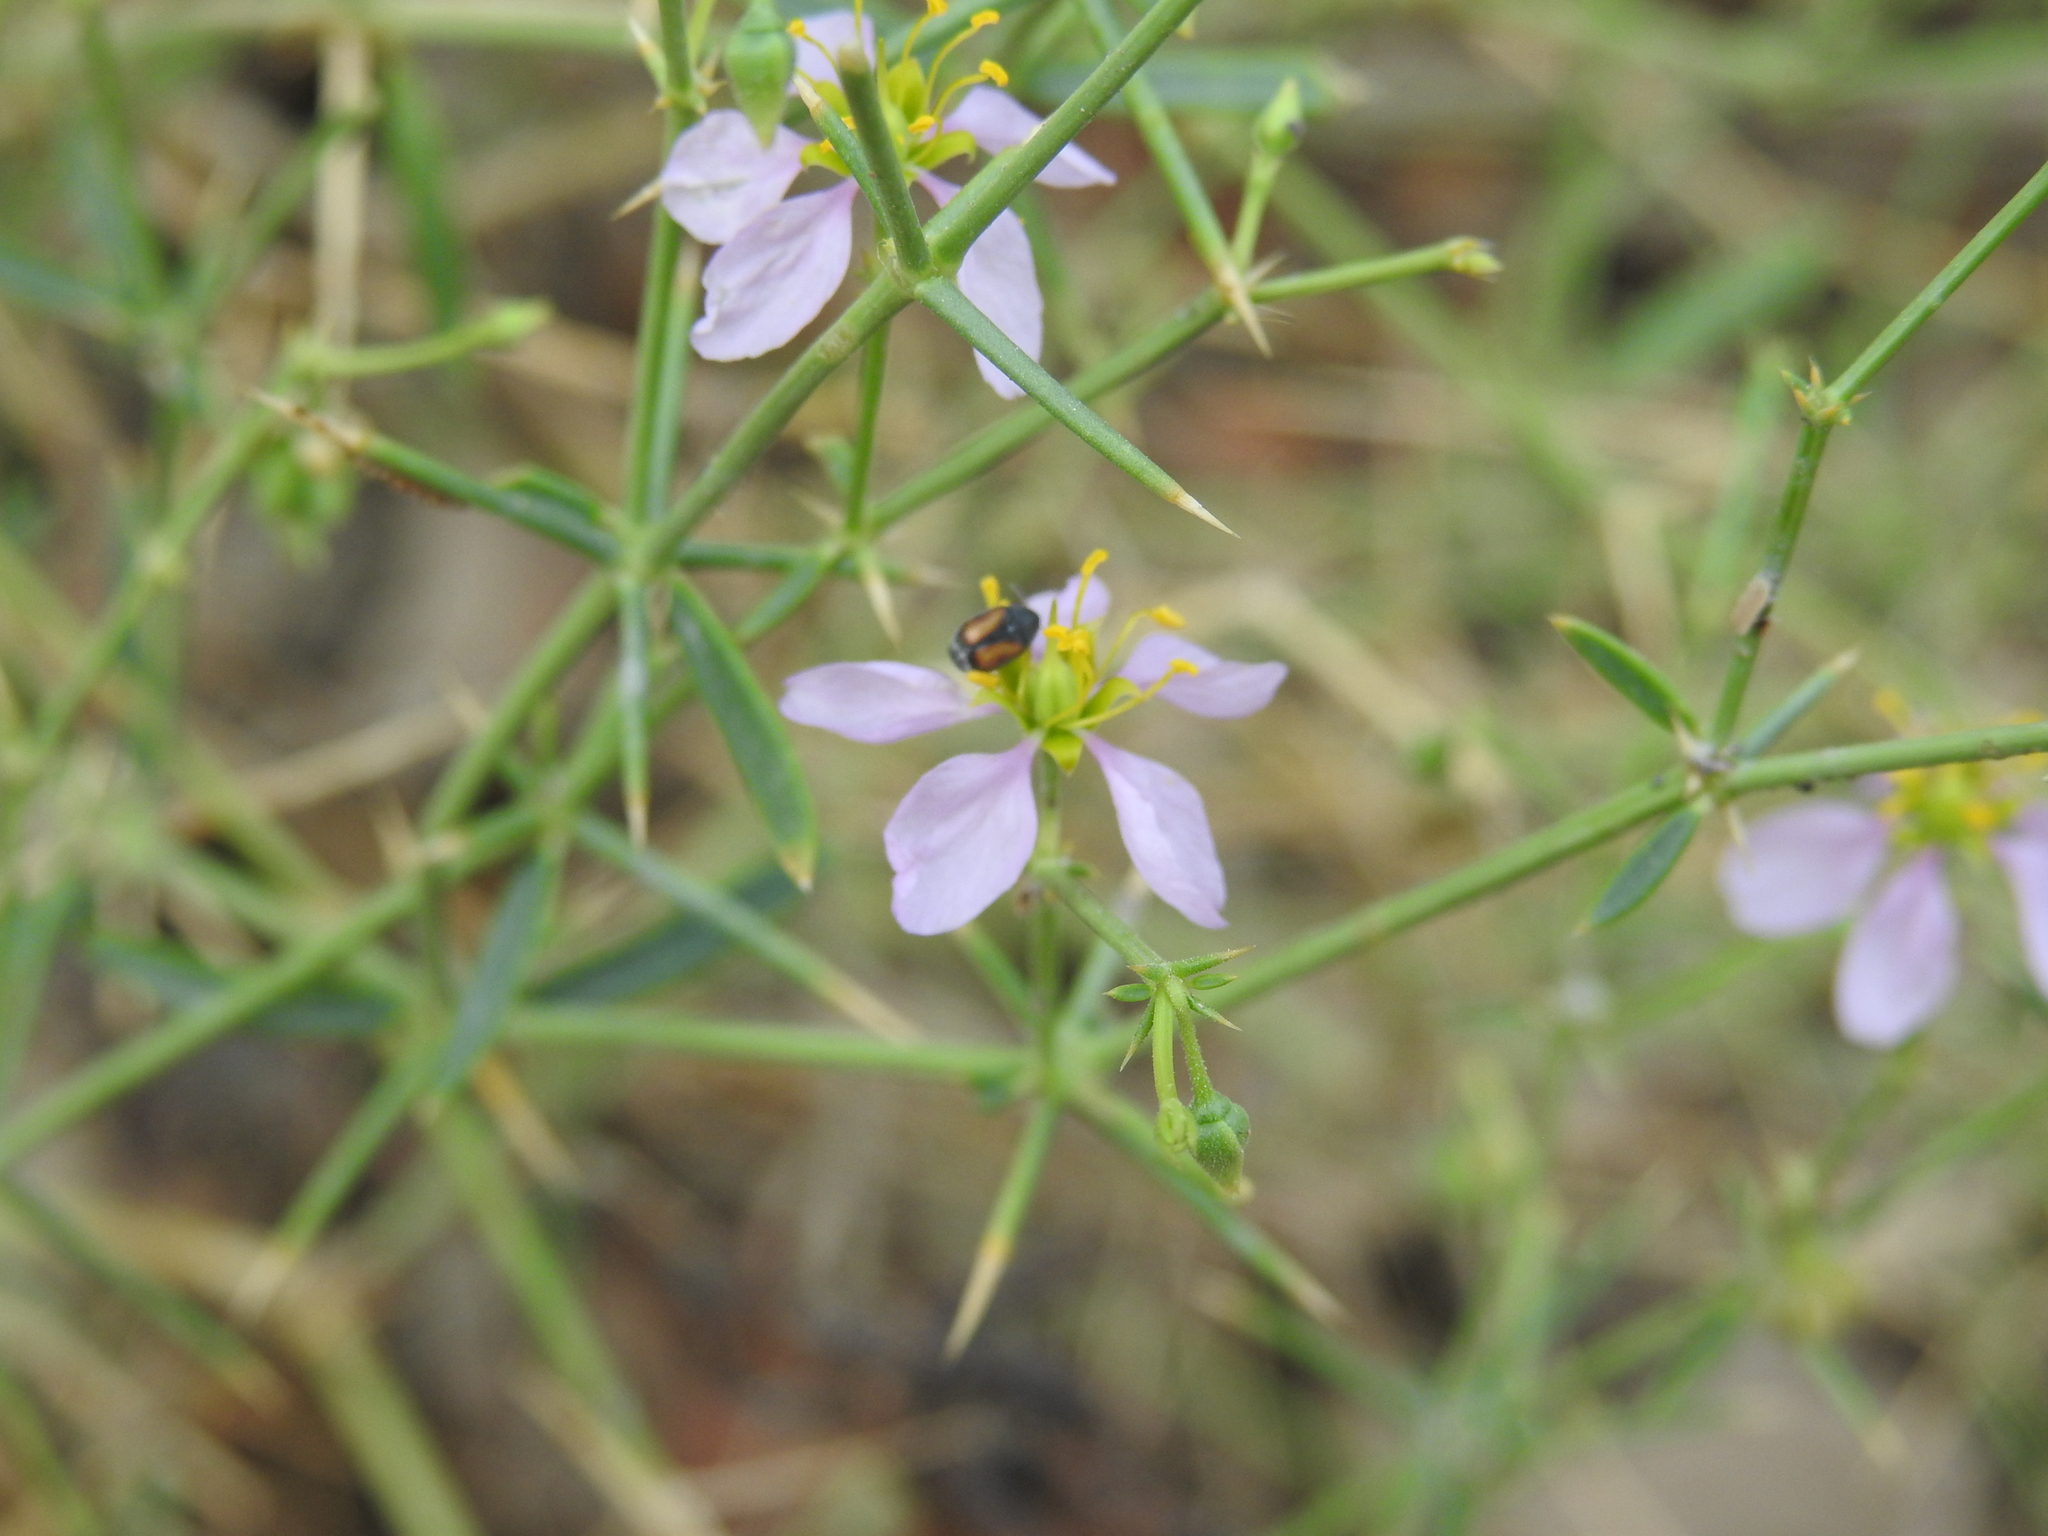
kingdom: Plantae
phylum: Tracheophyta
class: Magnoliopsida
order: Zygophyllales
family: Zygophyllaceae
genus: Fagonia
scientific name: Fagonia indica
